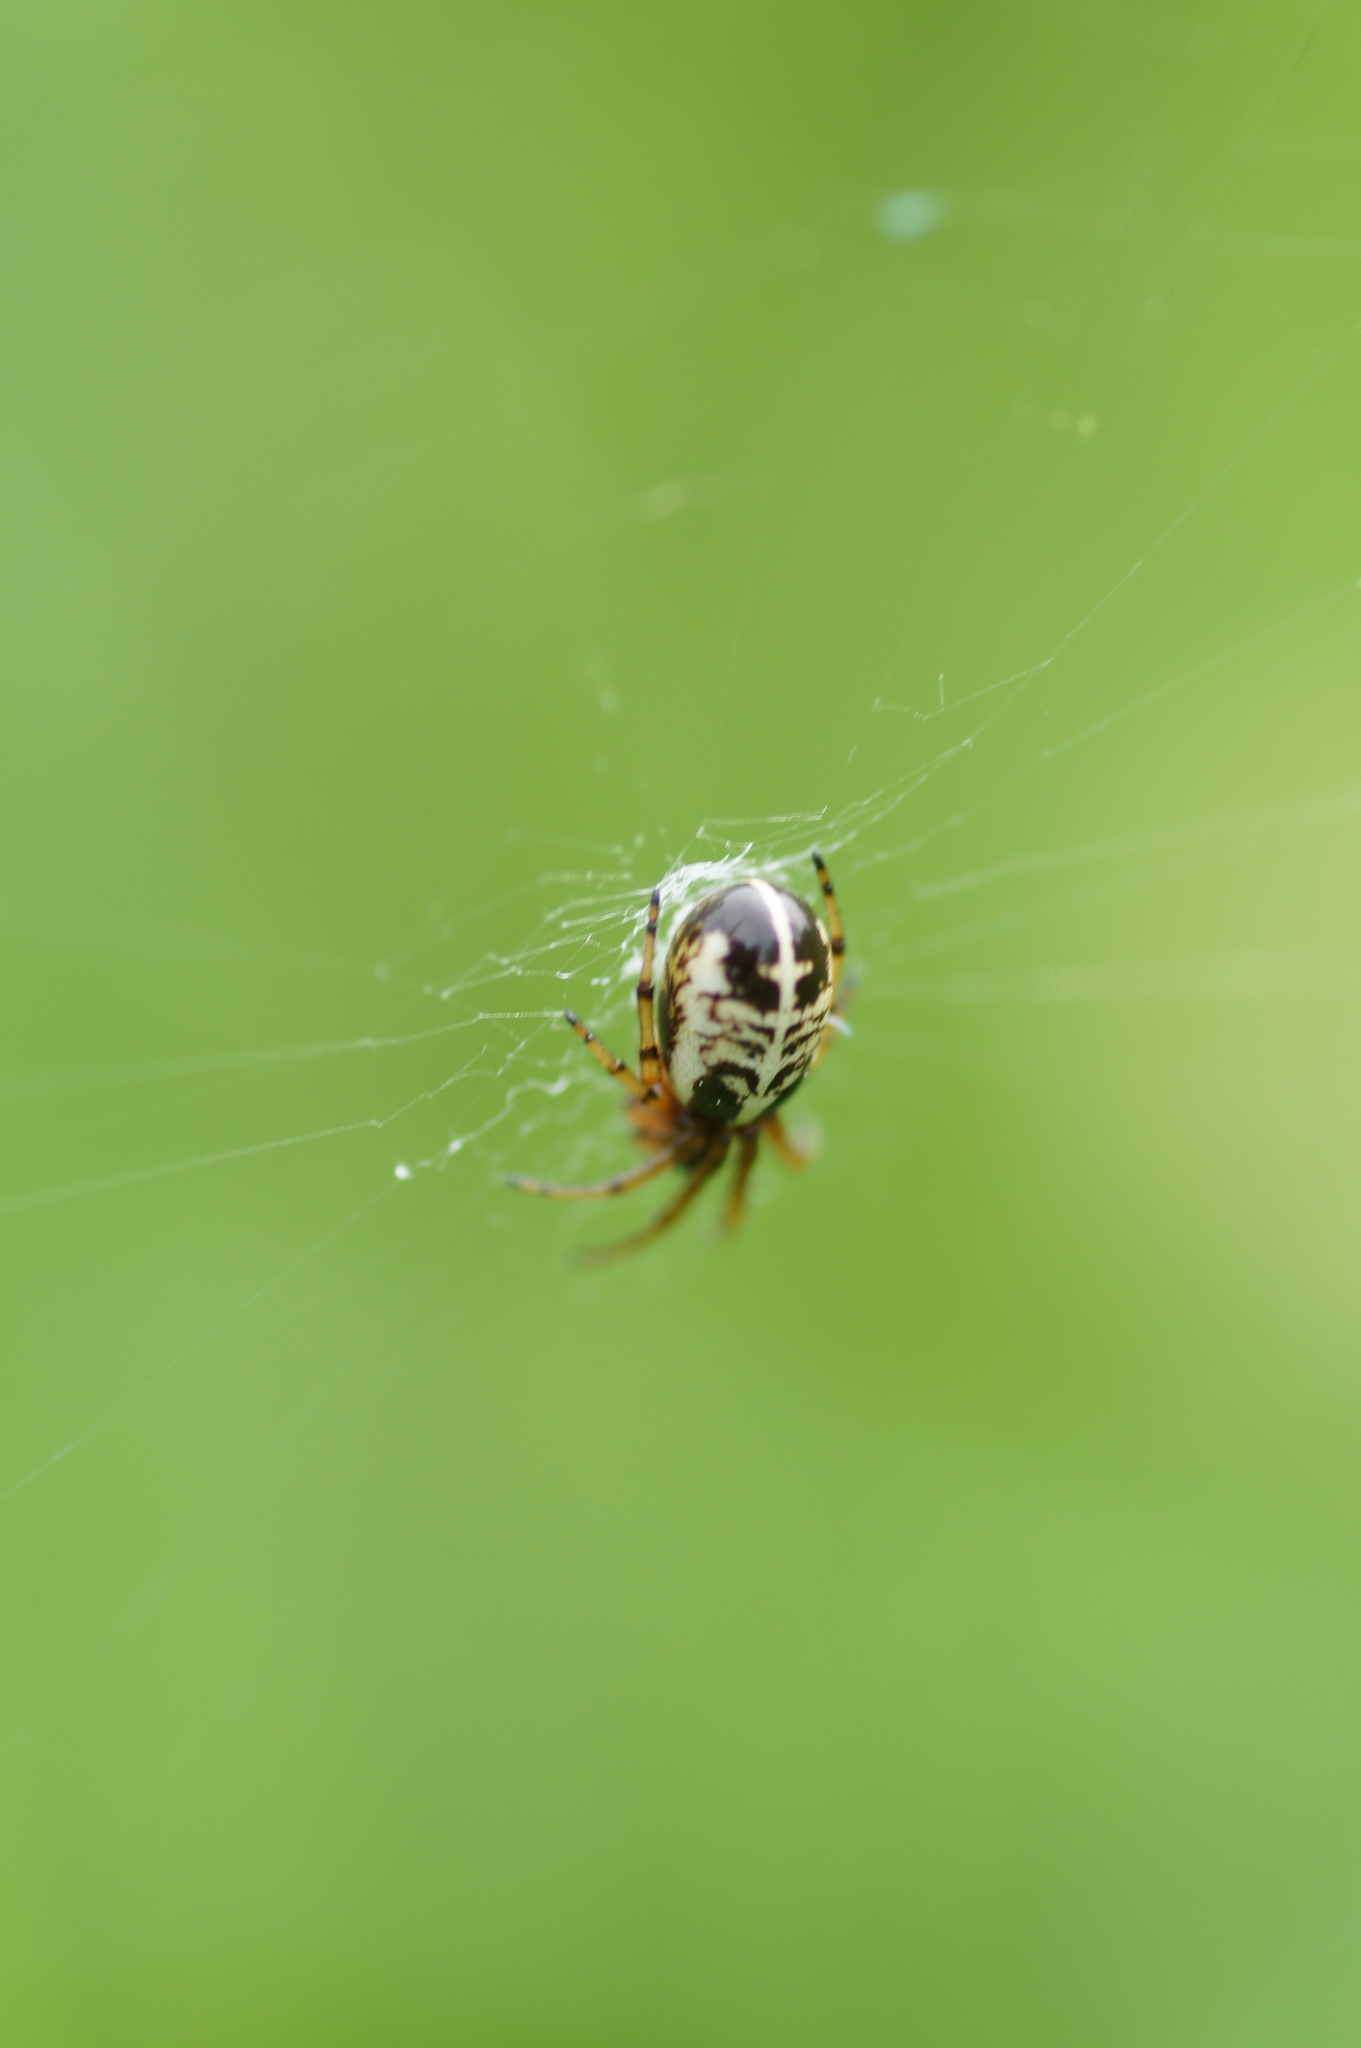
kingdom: Animalia
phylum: Arthropoda
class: Arachnida
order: Araneae
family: Araneidae
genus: Singa
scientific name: Singa hamata
